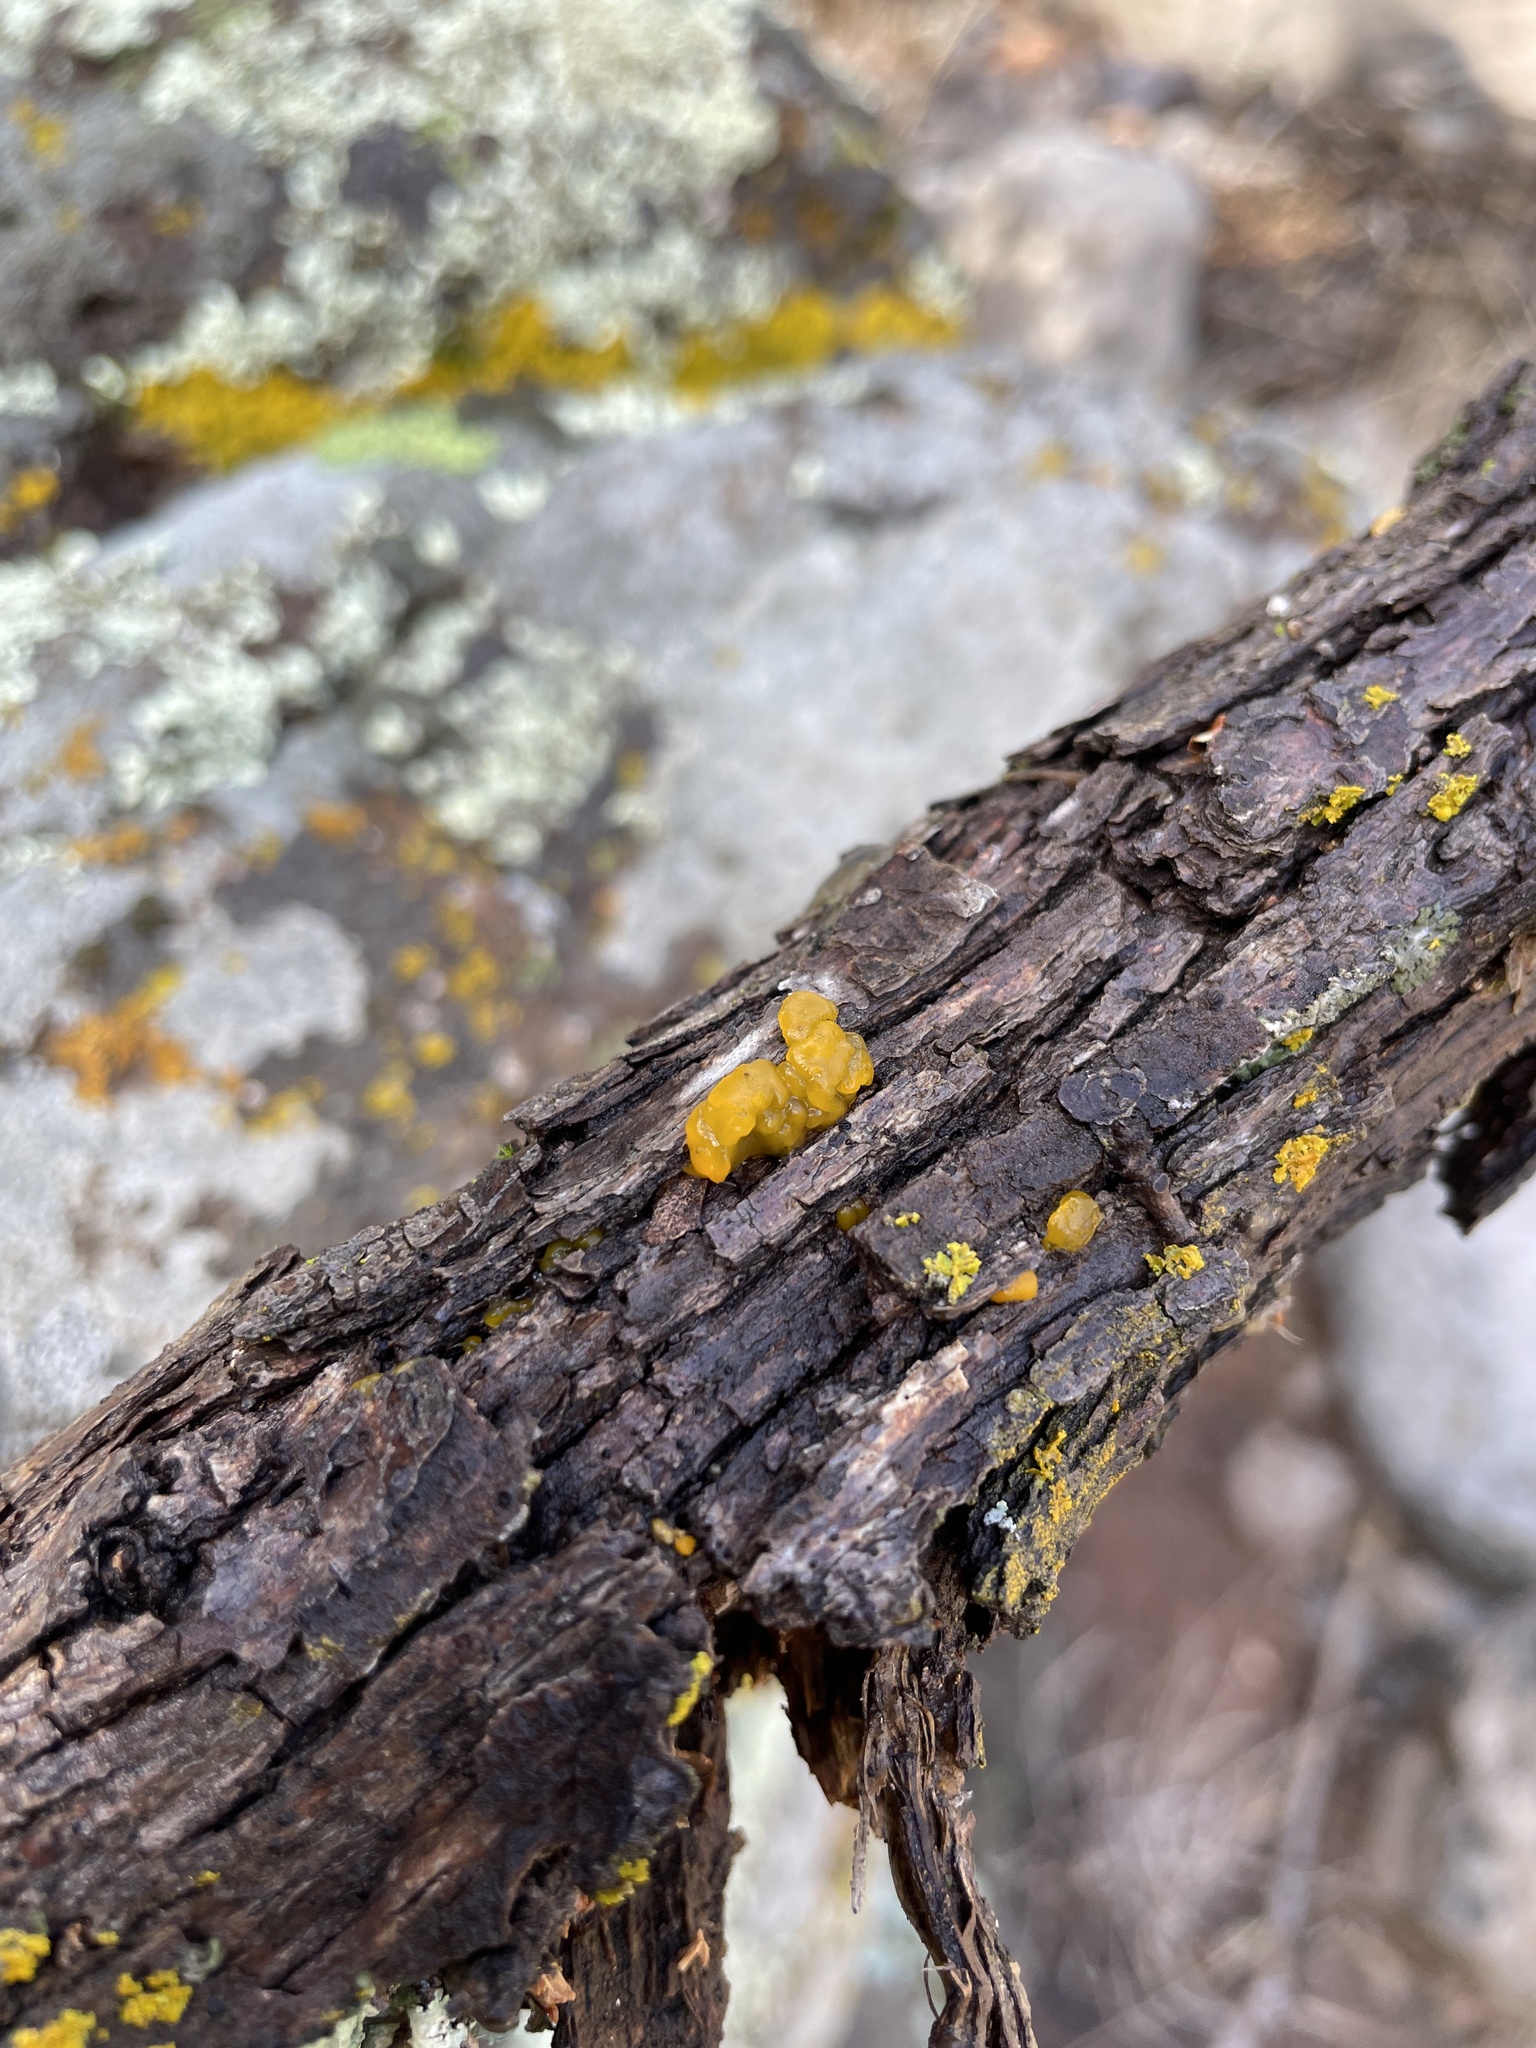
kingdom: Fungi
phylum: Basidiomycota
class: Tremellomycetes
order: Tremellales
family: Tremellaceae
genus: Tremella
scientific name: Tremella mesenterica
